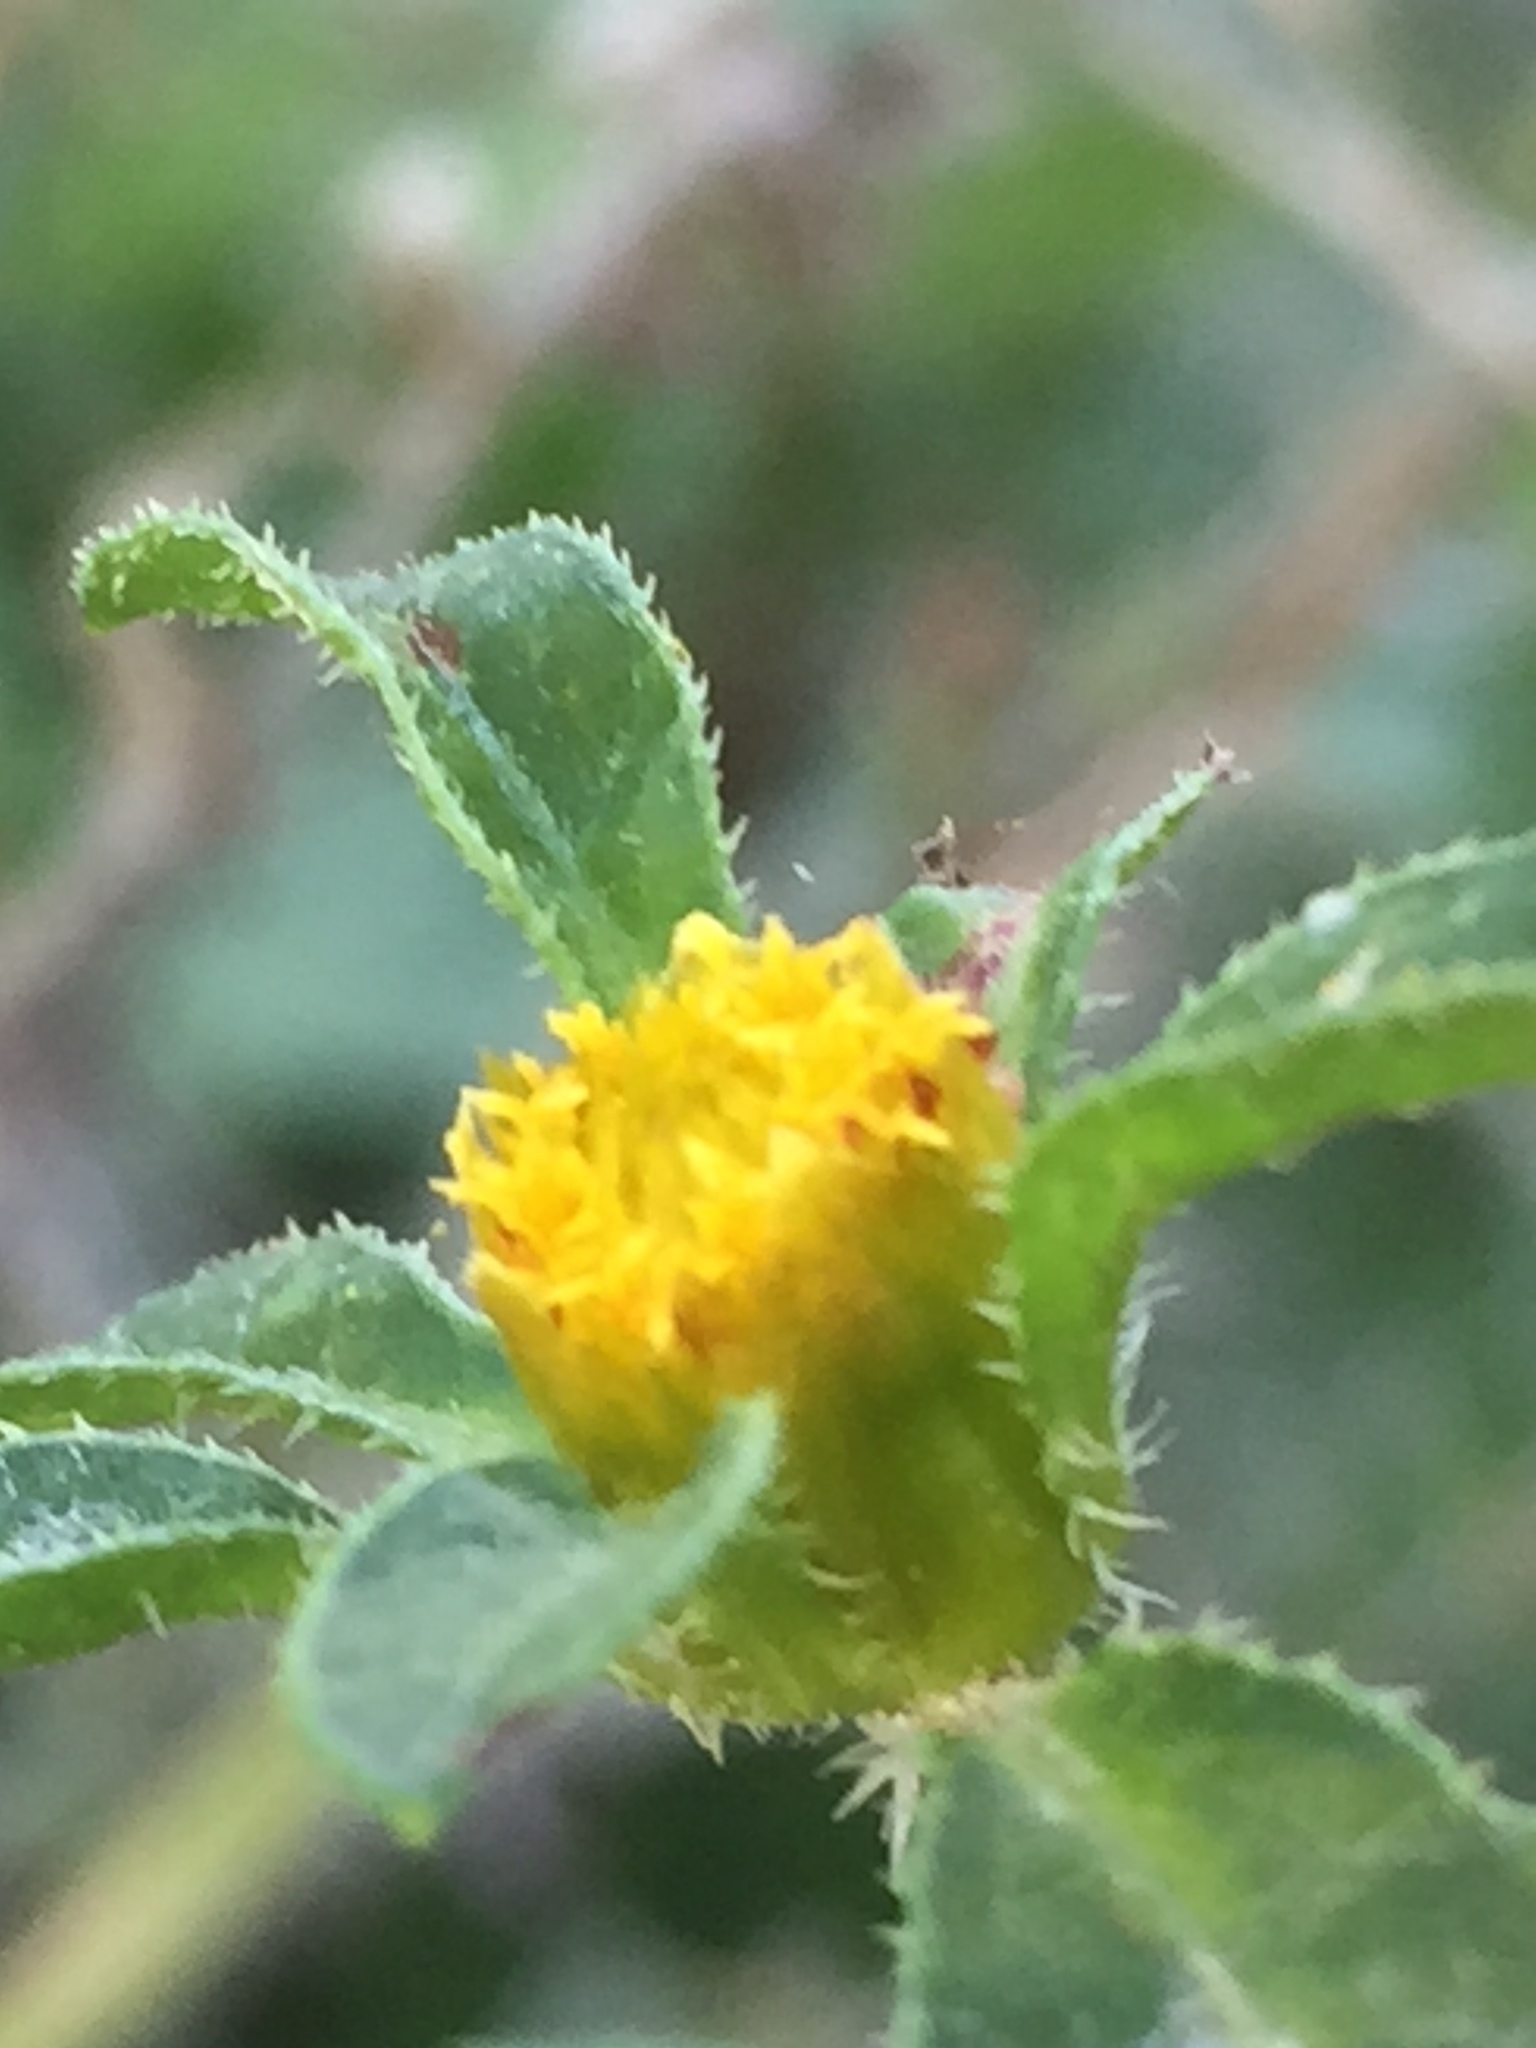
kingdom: Plantae
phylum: Tracheophyta
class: Magnoliopsida
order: Asterales
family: Asteraceae
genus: Bidens
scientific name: Bidens frondosa
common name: Beggarticks
